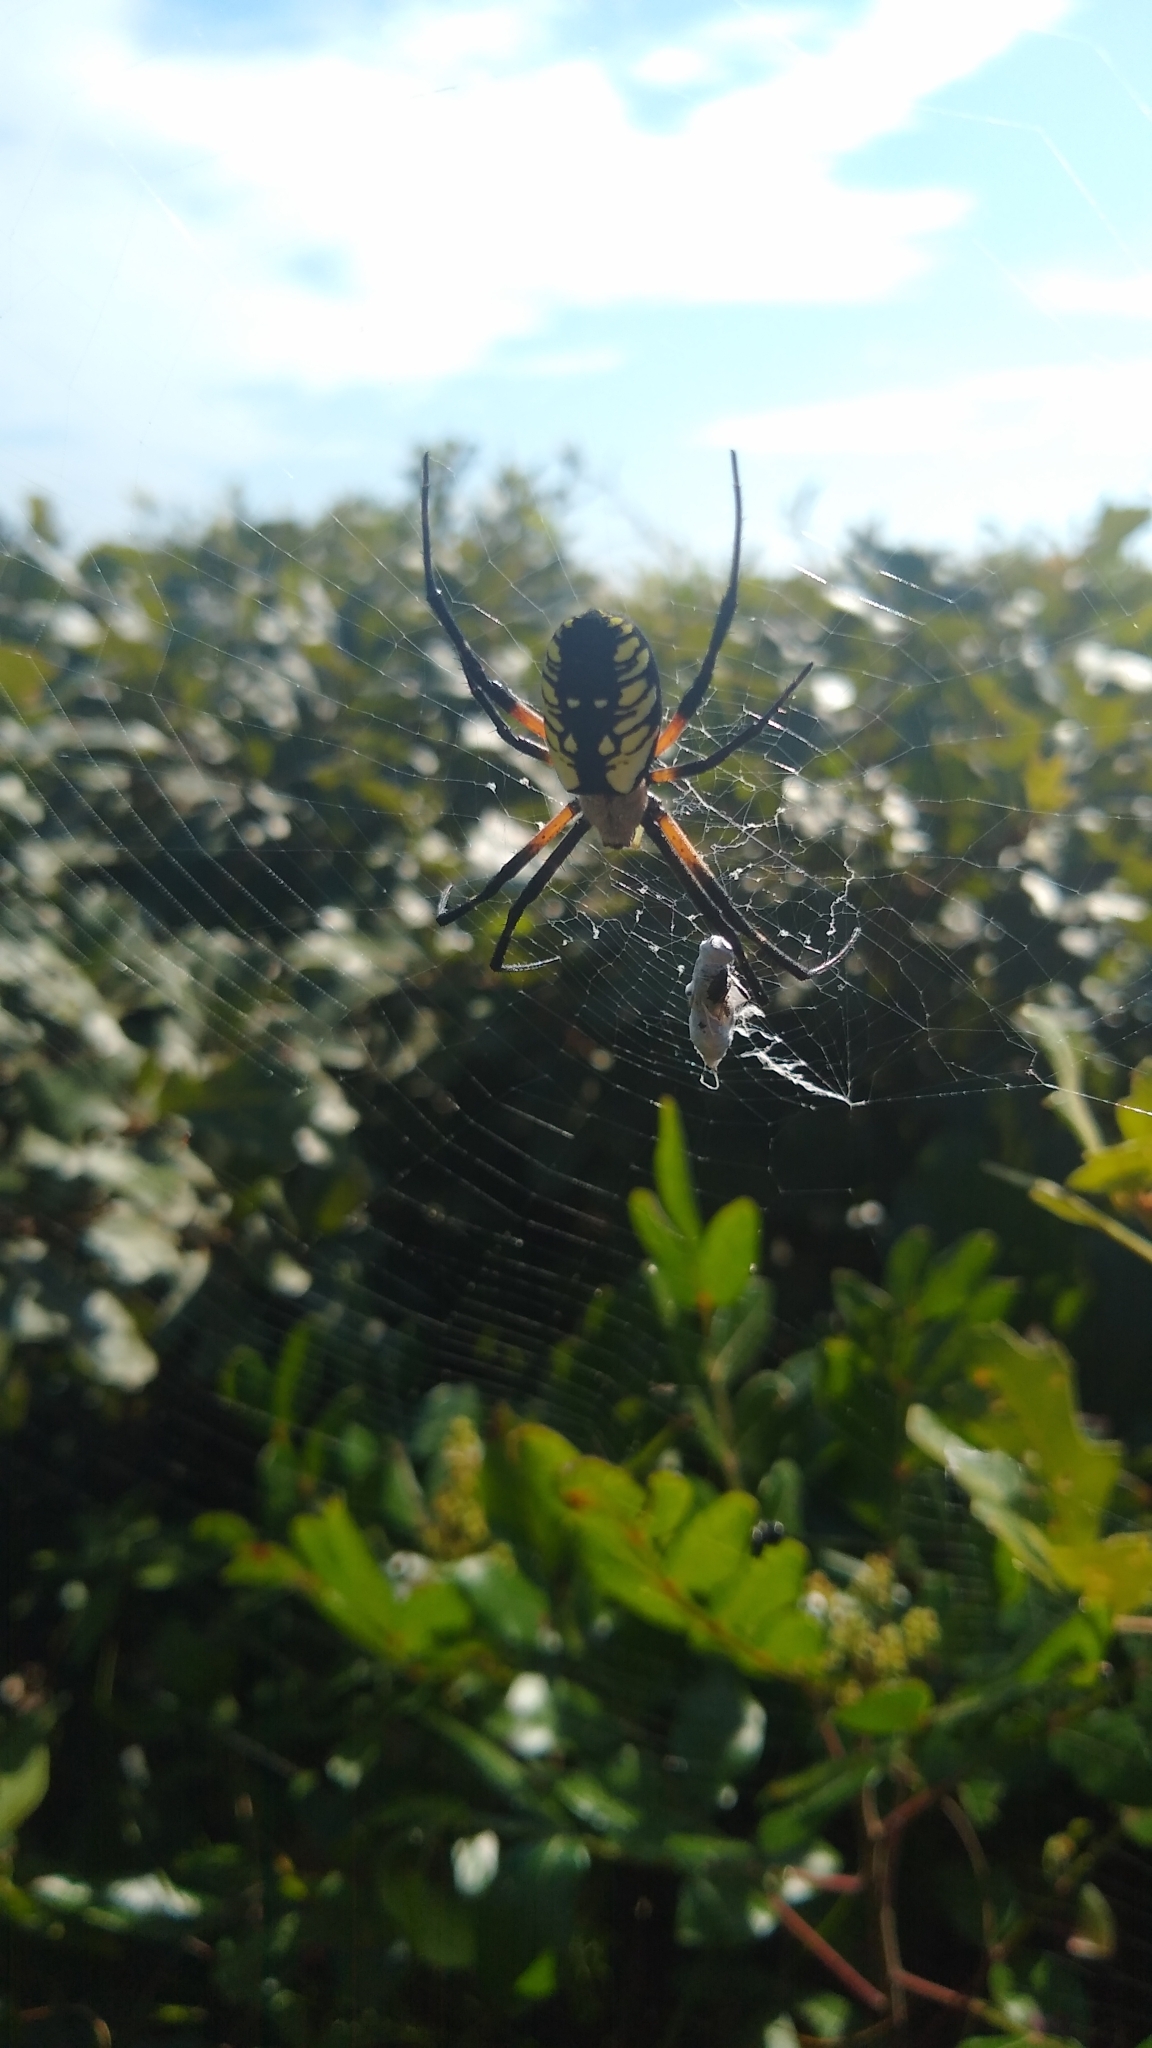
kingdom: Animalia
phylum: Arthropoda
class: Arachnida
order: Araneae
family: Araneidae
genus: Argiope
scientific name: Argiope aurantia
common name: Orb weavers
